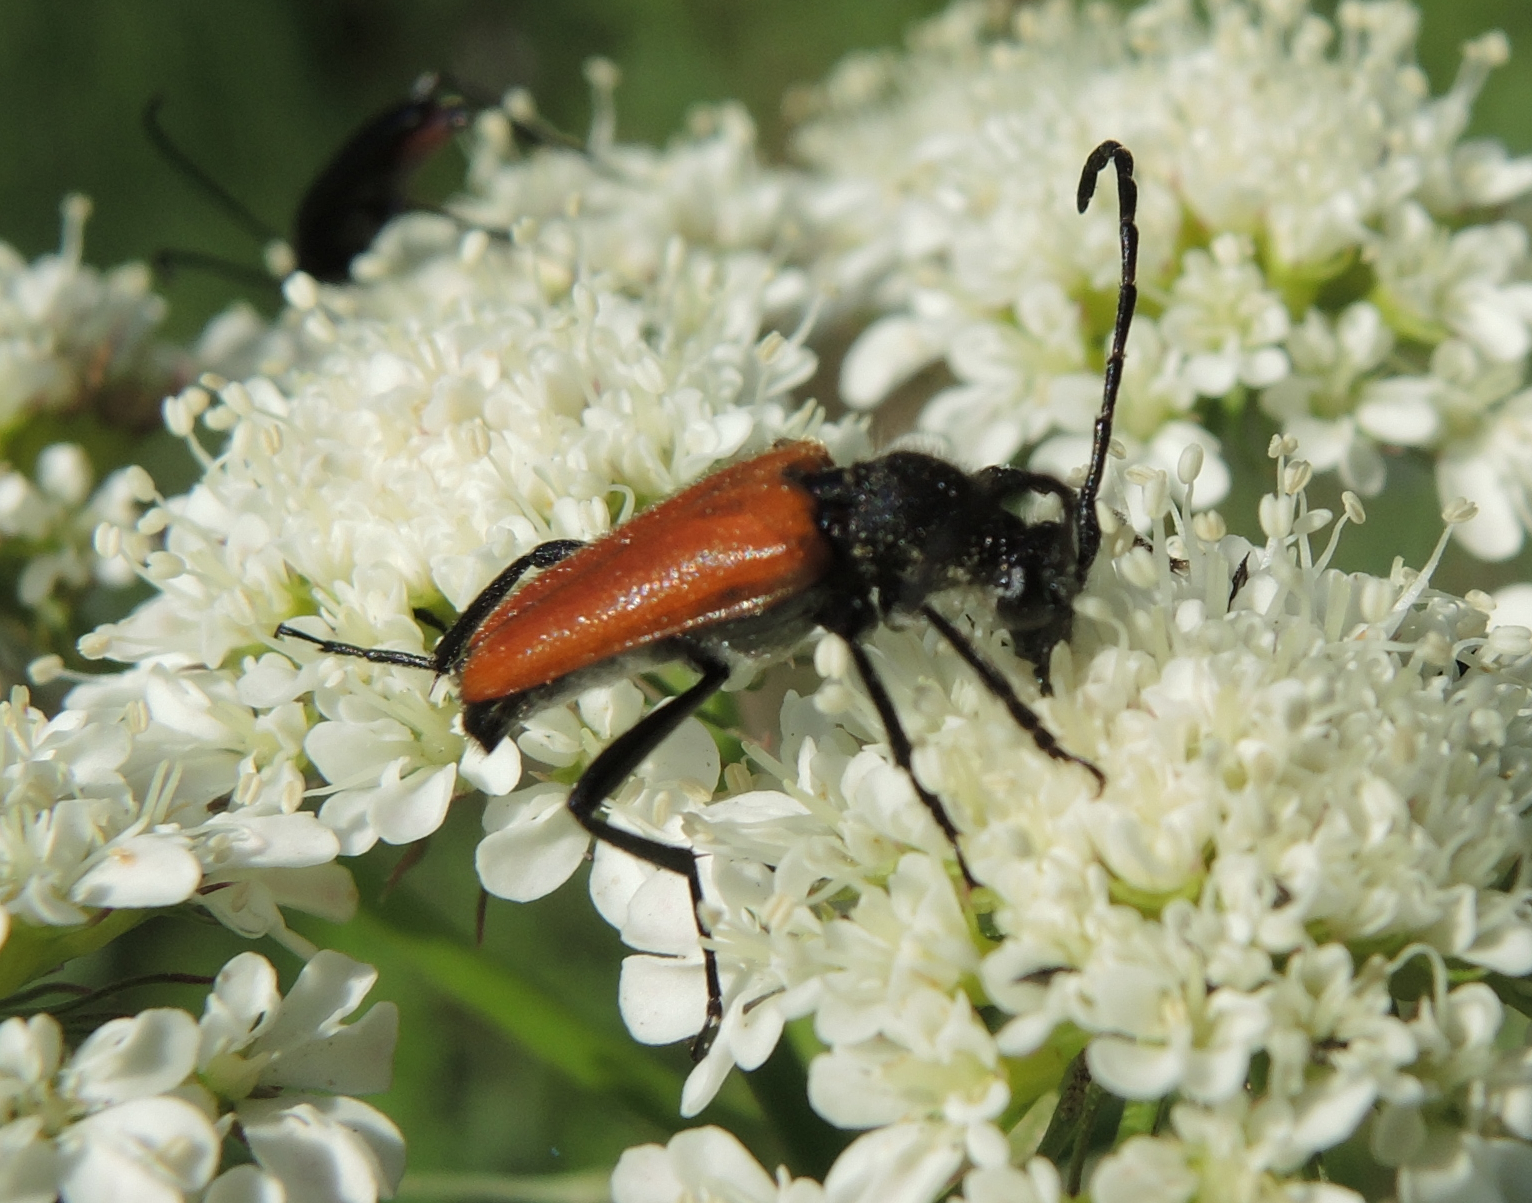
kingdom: Animalia
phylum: Arthropoda
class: Insecta
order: Coleoptera
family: Cerambycidae
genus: Paracorymbia
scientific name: Paracorymbia pallens
